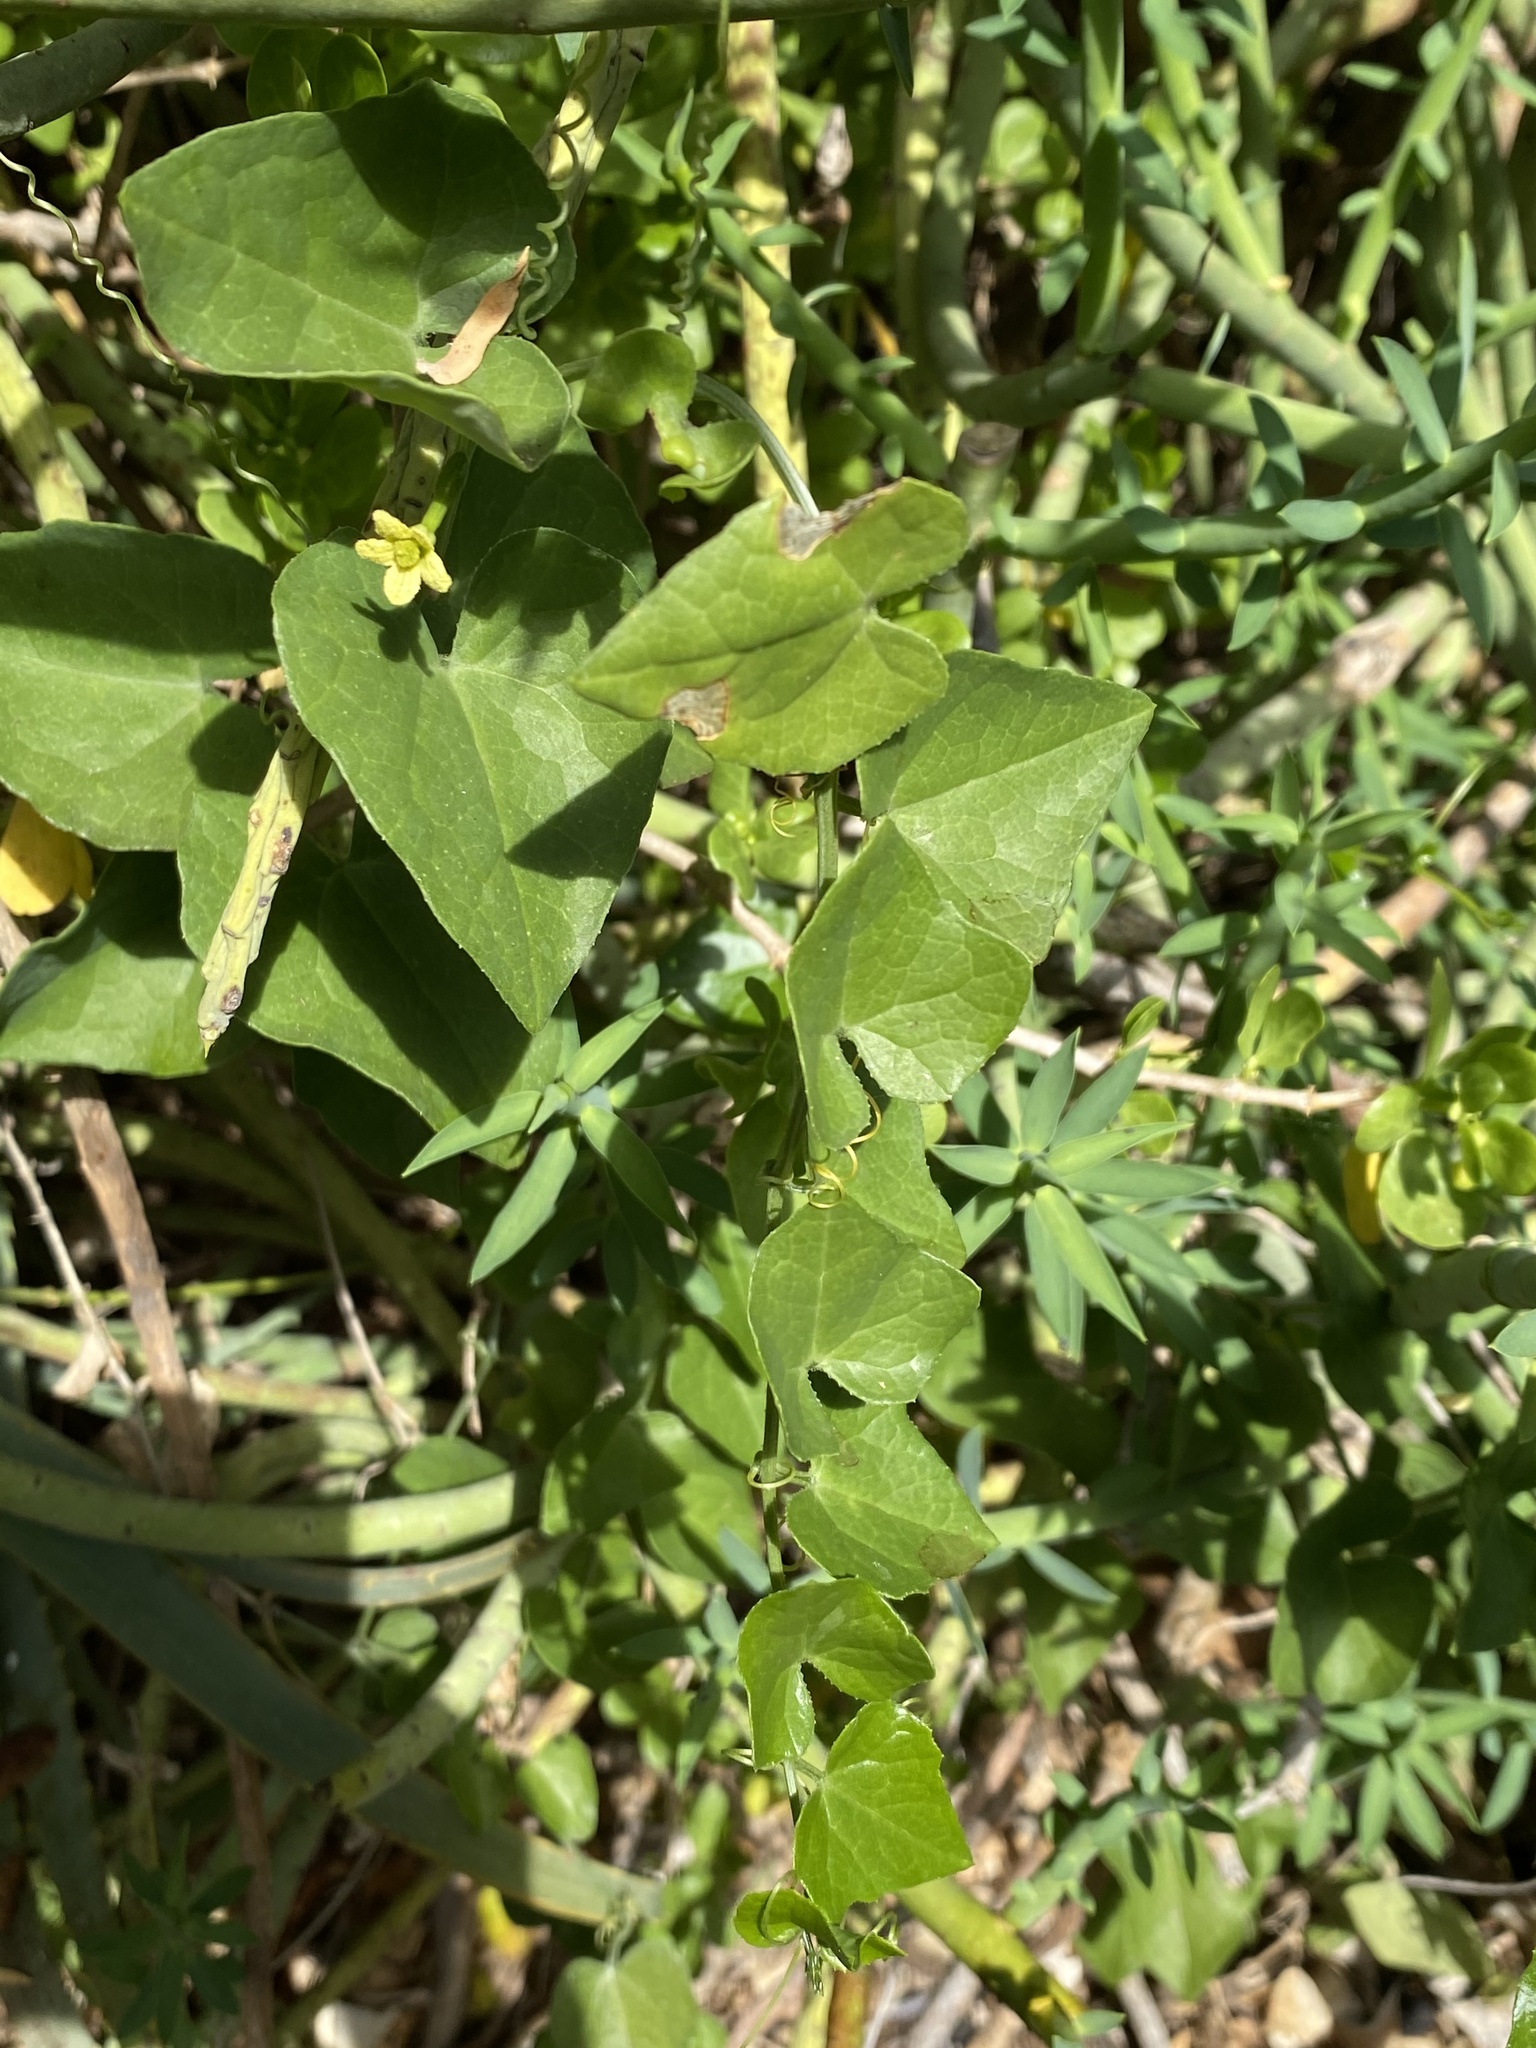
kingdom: Plantae
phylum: Tracheophyta
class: Magnoliopsida
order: Cucurbitales
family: Cucurbitaceae
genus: Kedrostis
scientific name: Kedrostis nana
